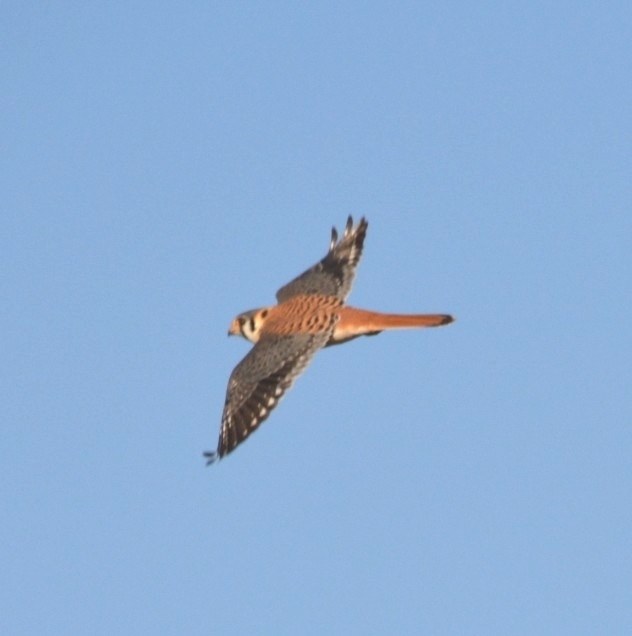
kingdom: Animalia
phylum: Chordata
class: Aves
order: Falconiformes
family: Falconidae
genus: Falco
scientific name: Falco sparverius
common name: American kestrel
